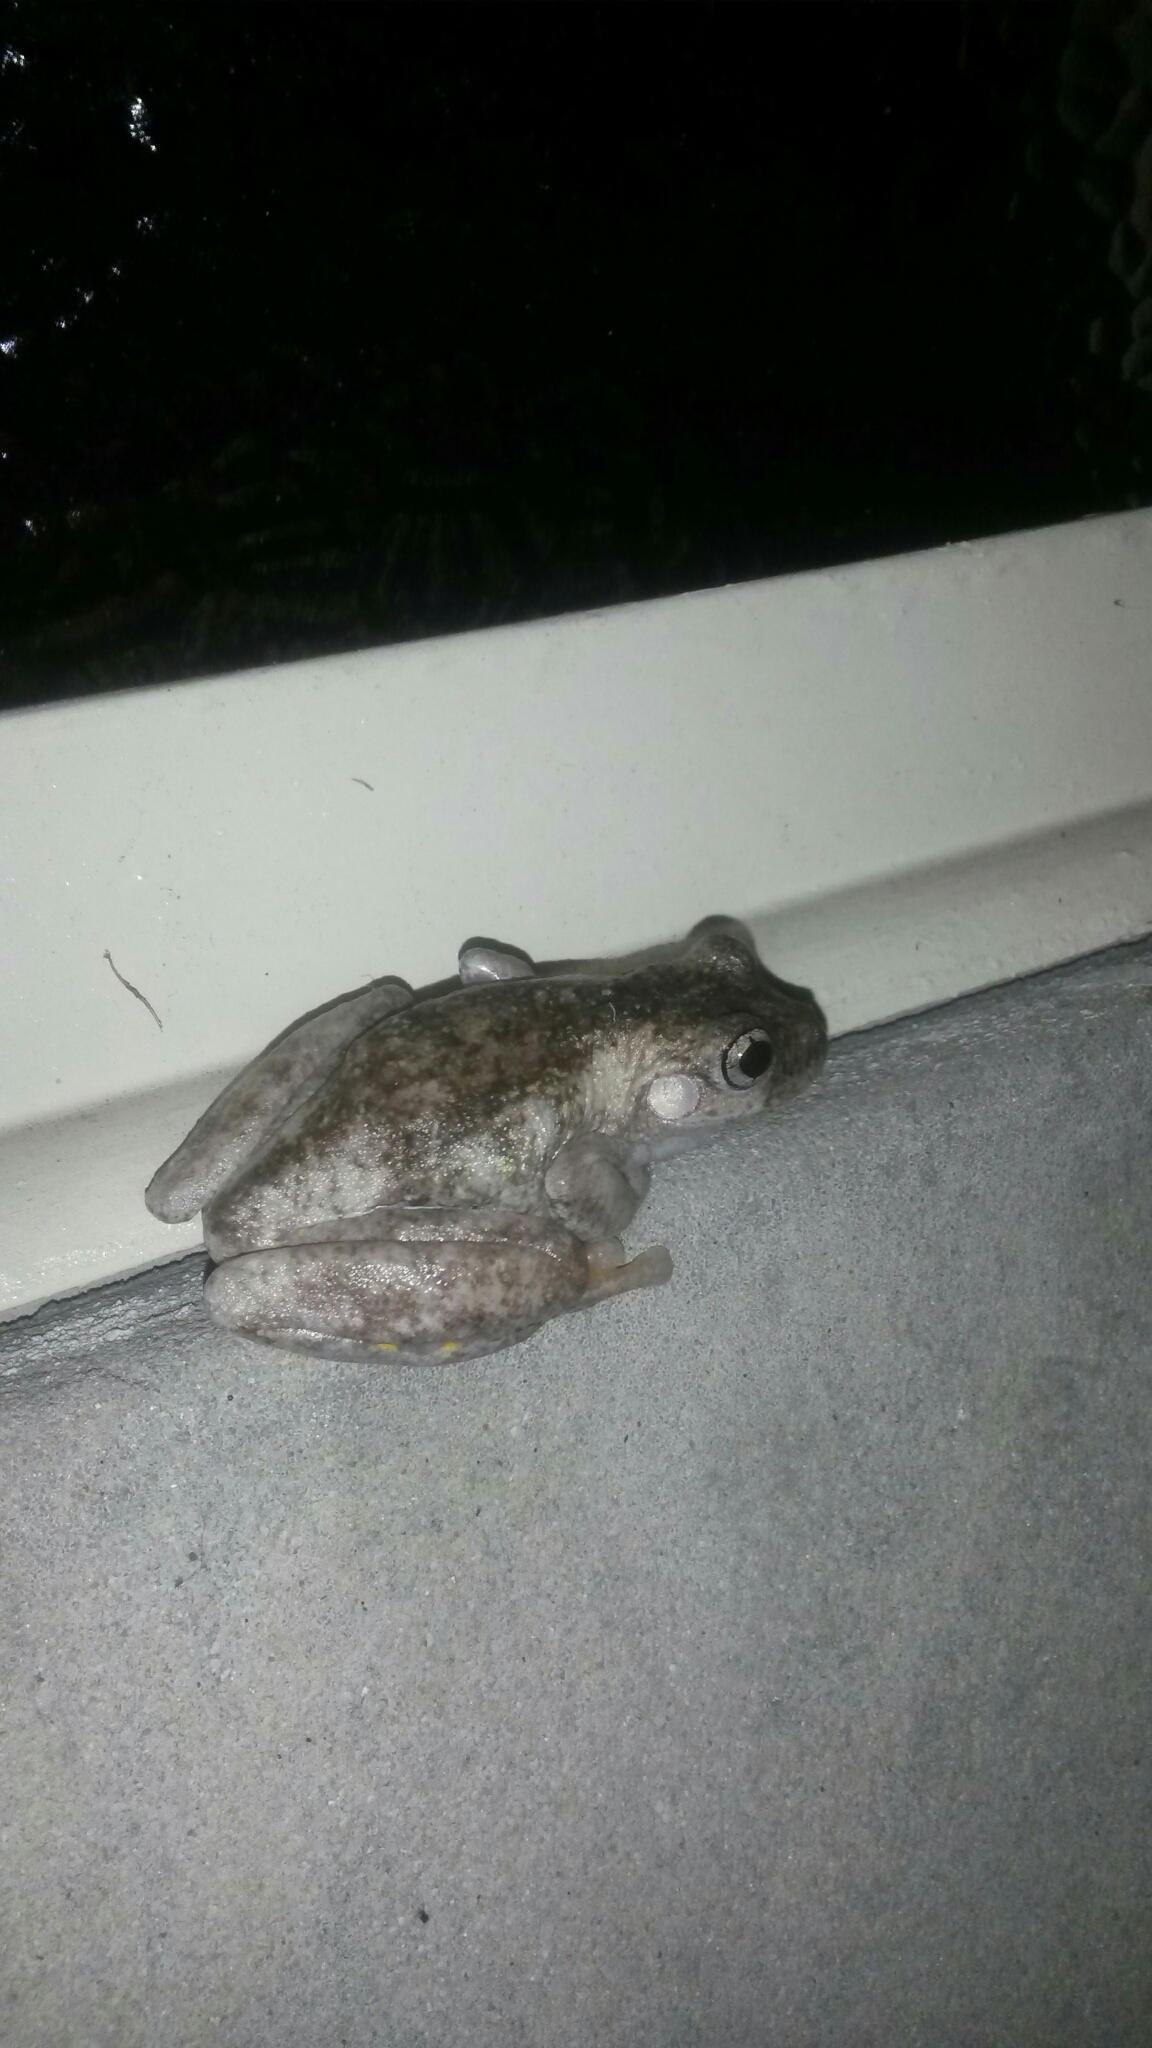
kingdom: Animalia
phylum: Chordata
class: Amphibia
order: Anura
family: Pelodryadidae
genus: Litoria
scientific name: Litoria peronii
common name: Emerald spotted treefrog
